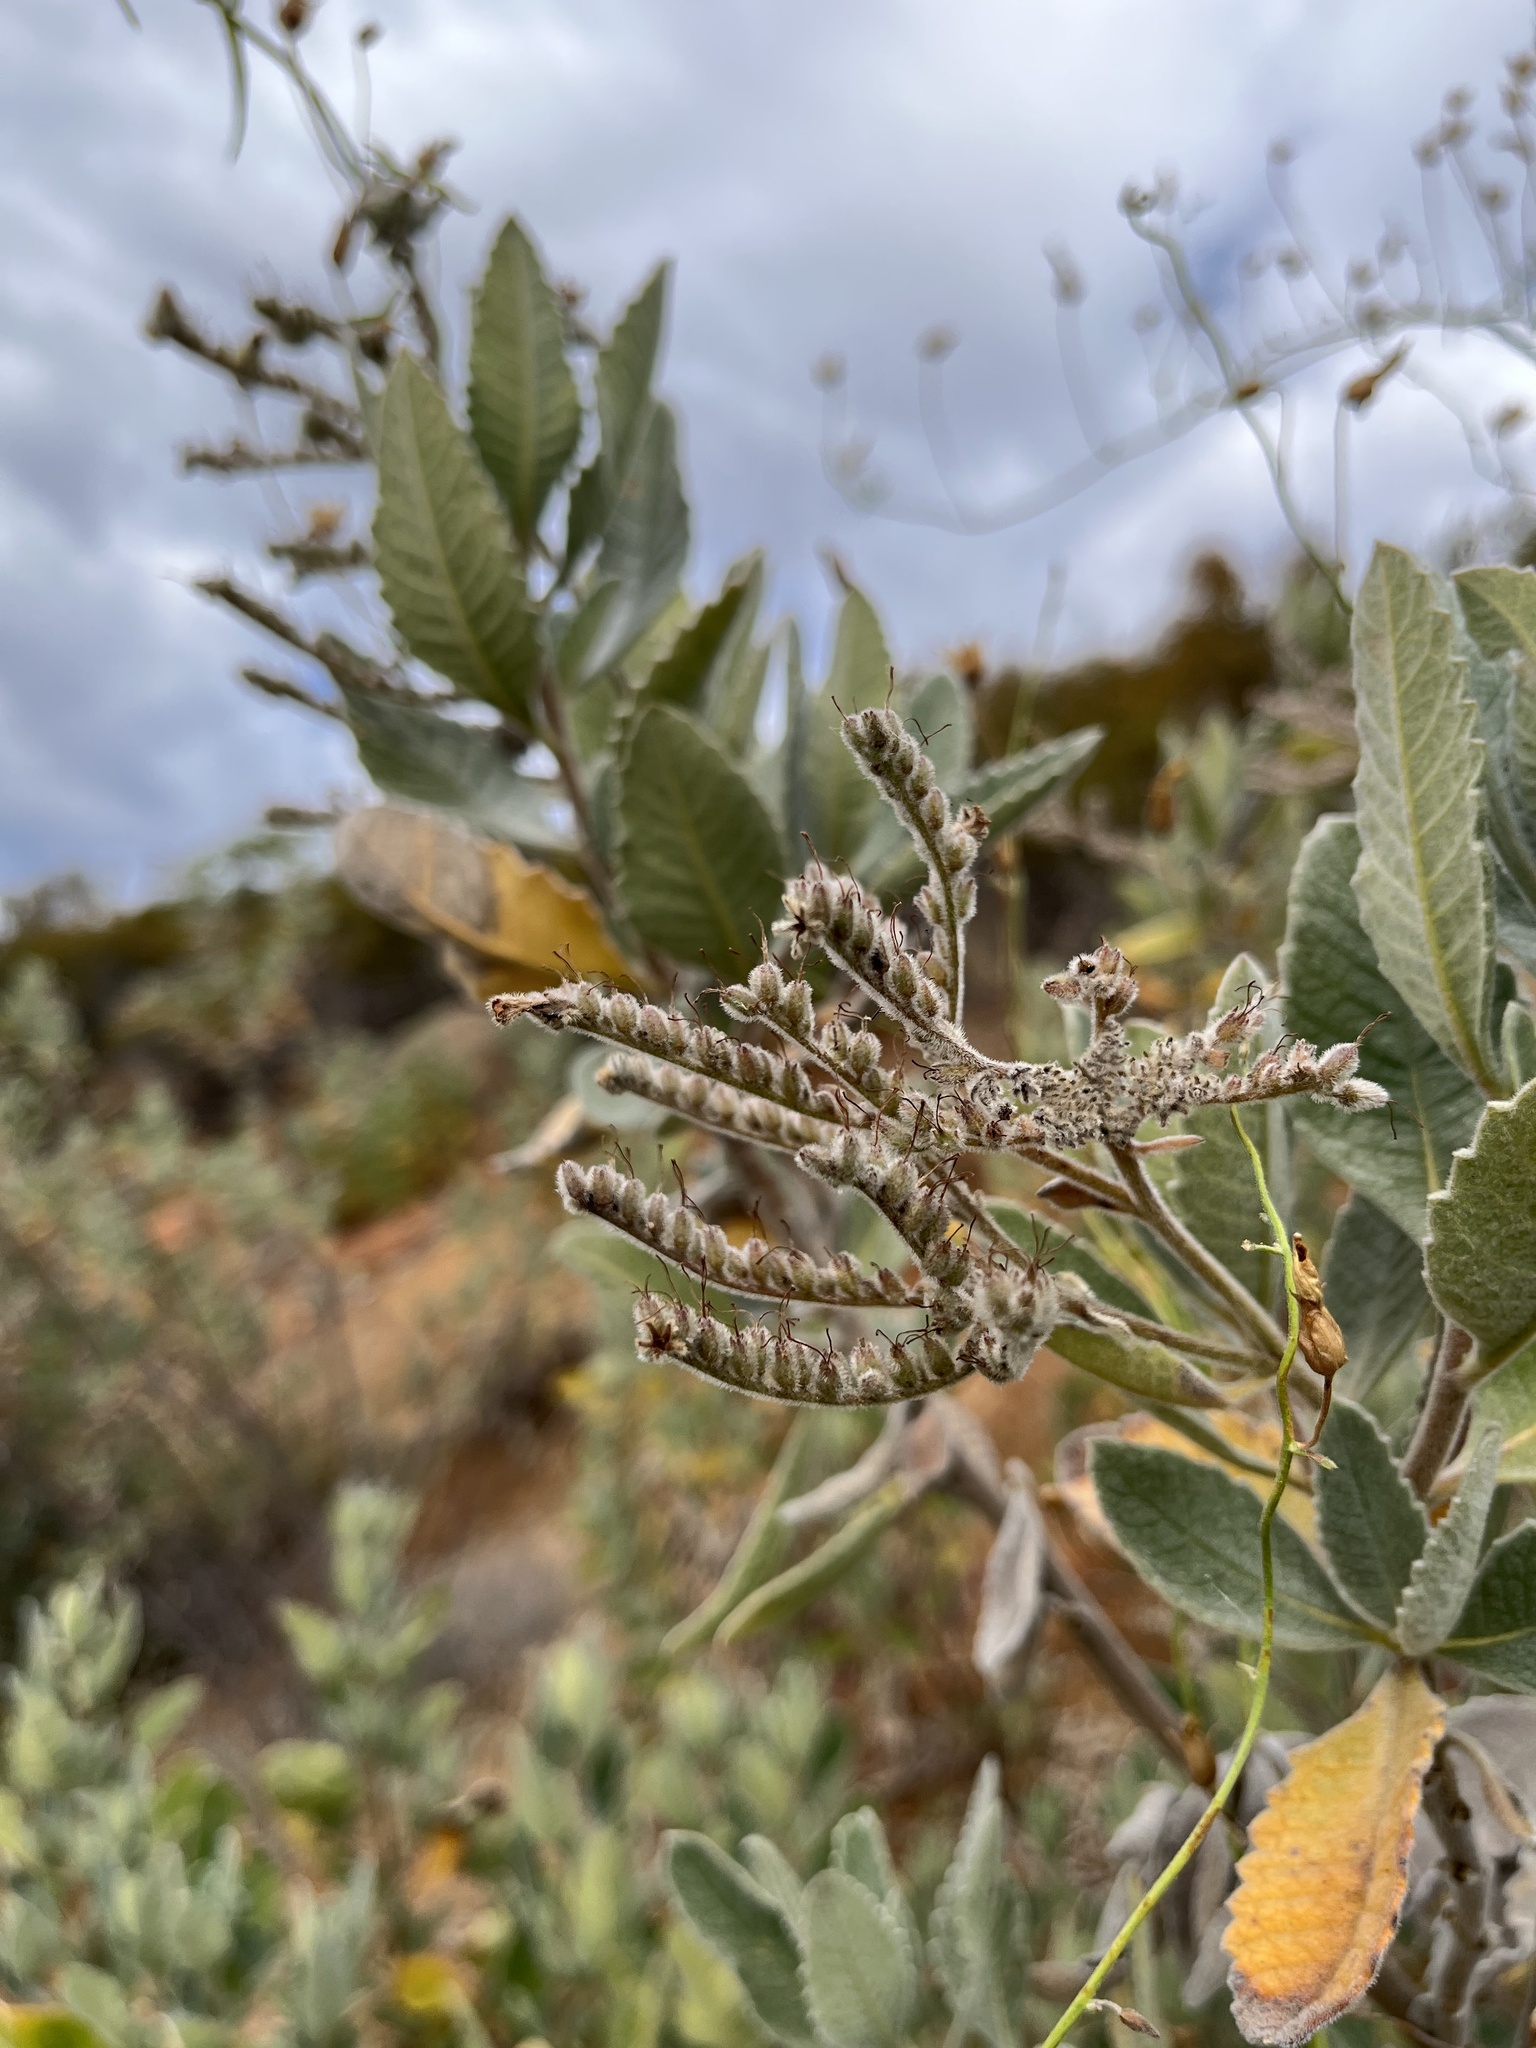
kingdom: Plantae
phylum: Tracheophyta
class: Magnoliopsida
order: Boraginales
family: Namaceae
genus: Eriodictyon
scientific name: Eriodictyon crassifolium
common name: Thick-leaf yerba-santa
